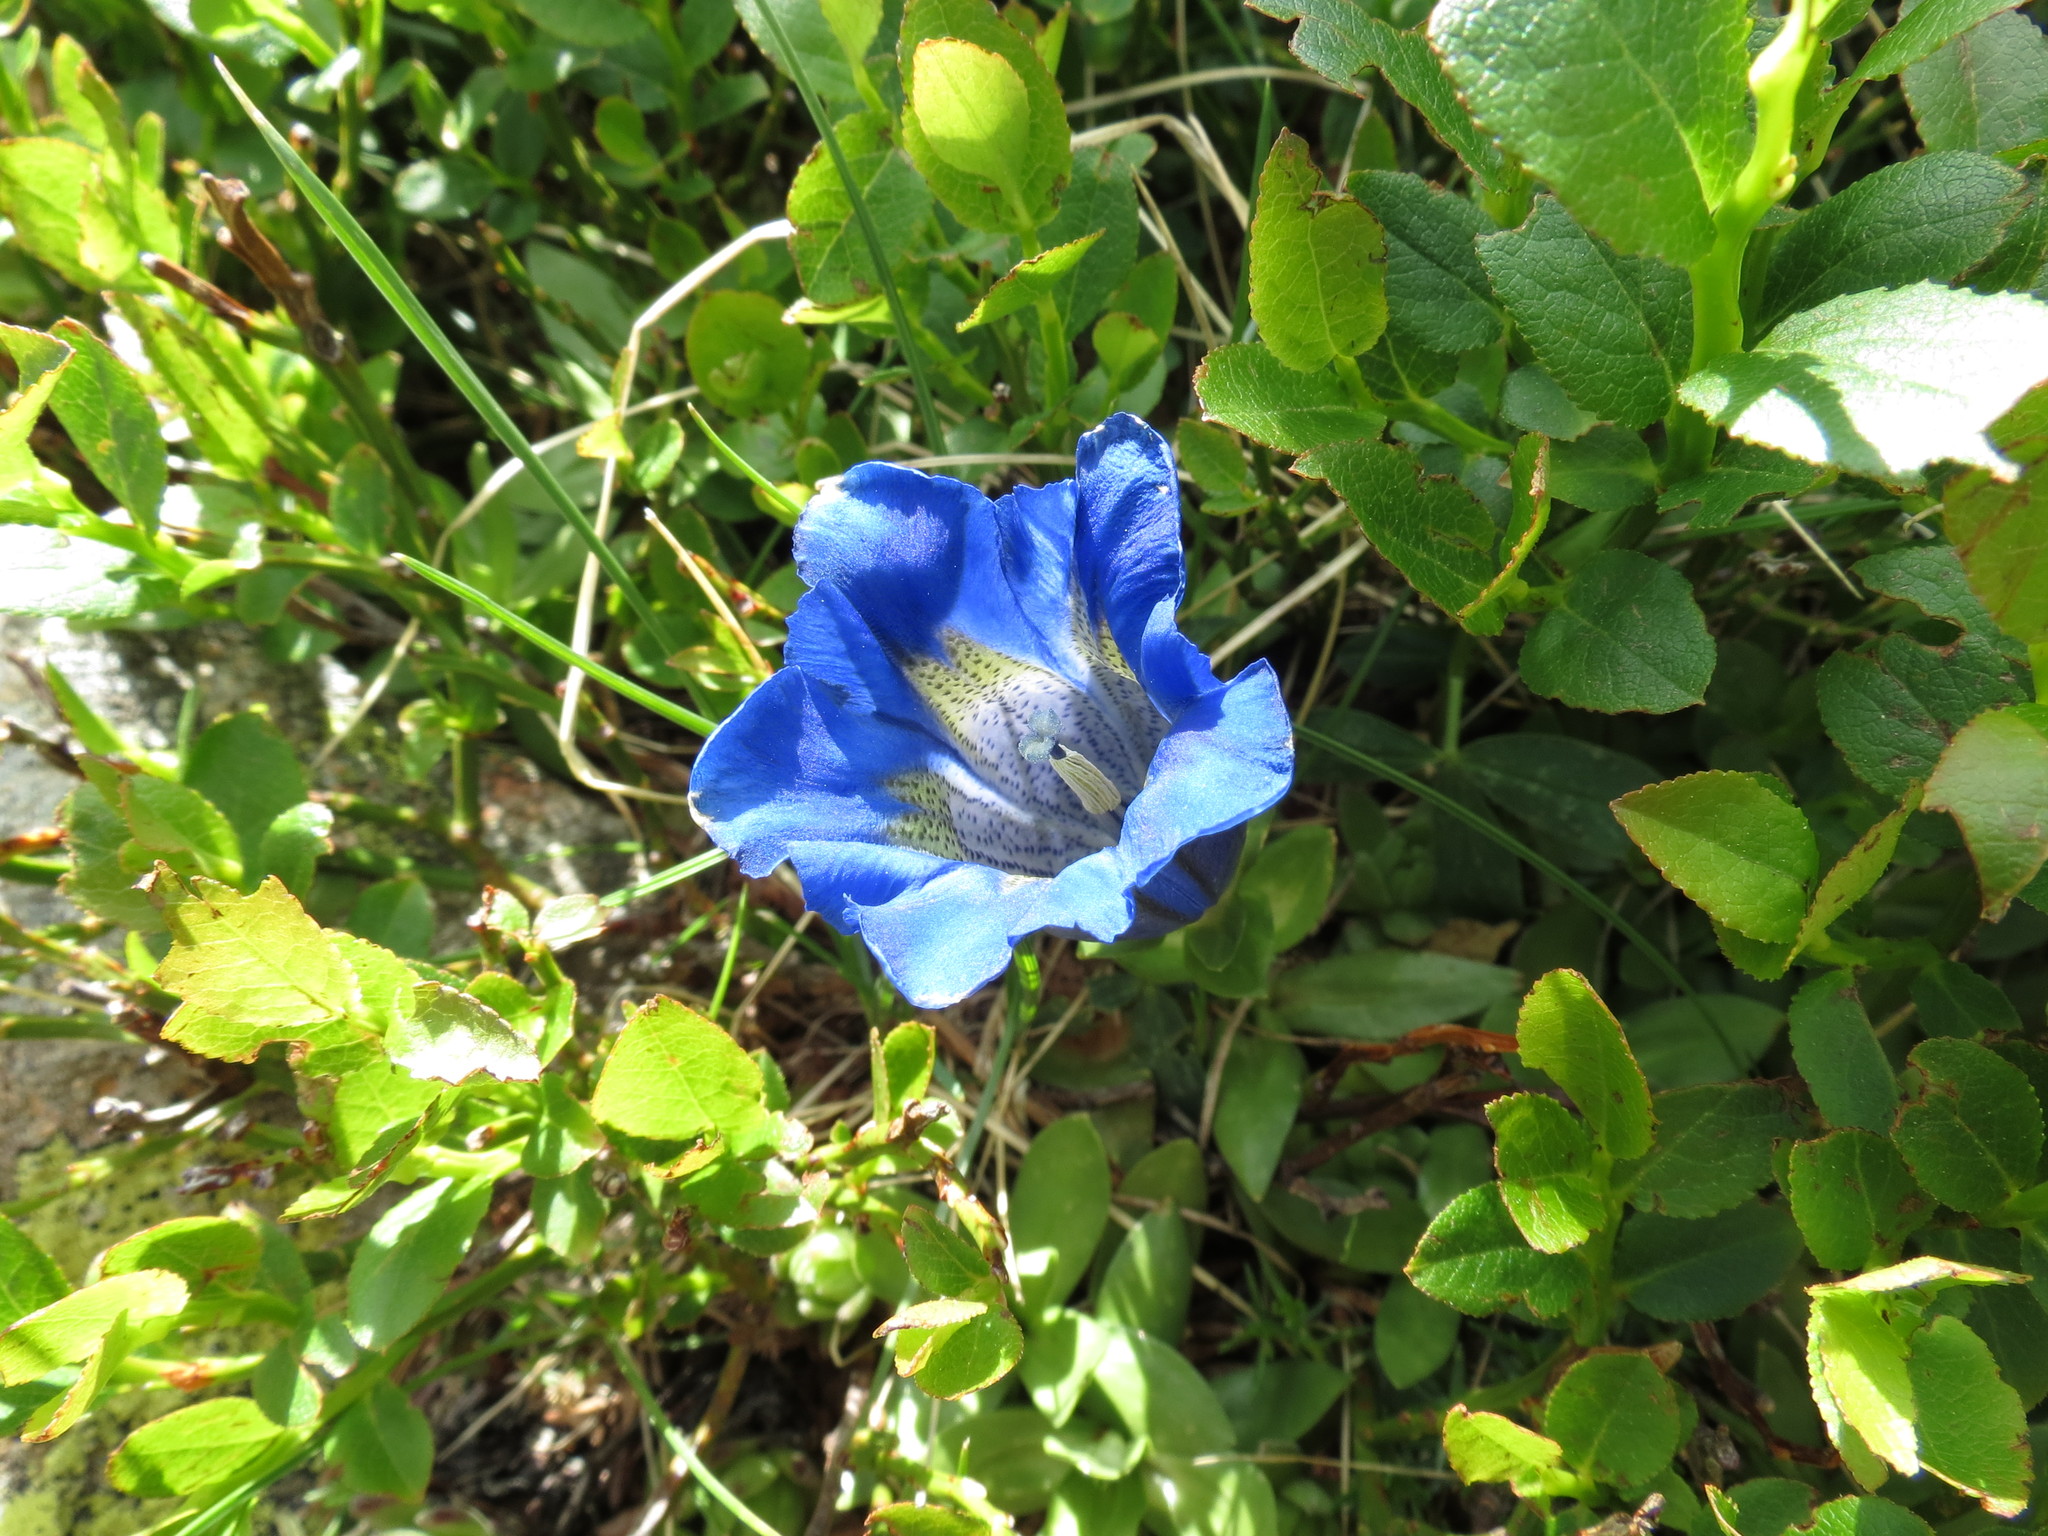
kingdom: Plantae
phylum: Tracheophyta
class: Magnoliopsida
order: Gentianales
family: Gentianaceae
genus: Gentiana
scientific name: Gentiana acaulis
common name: Trumpet gentian
